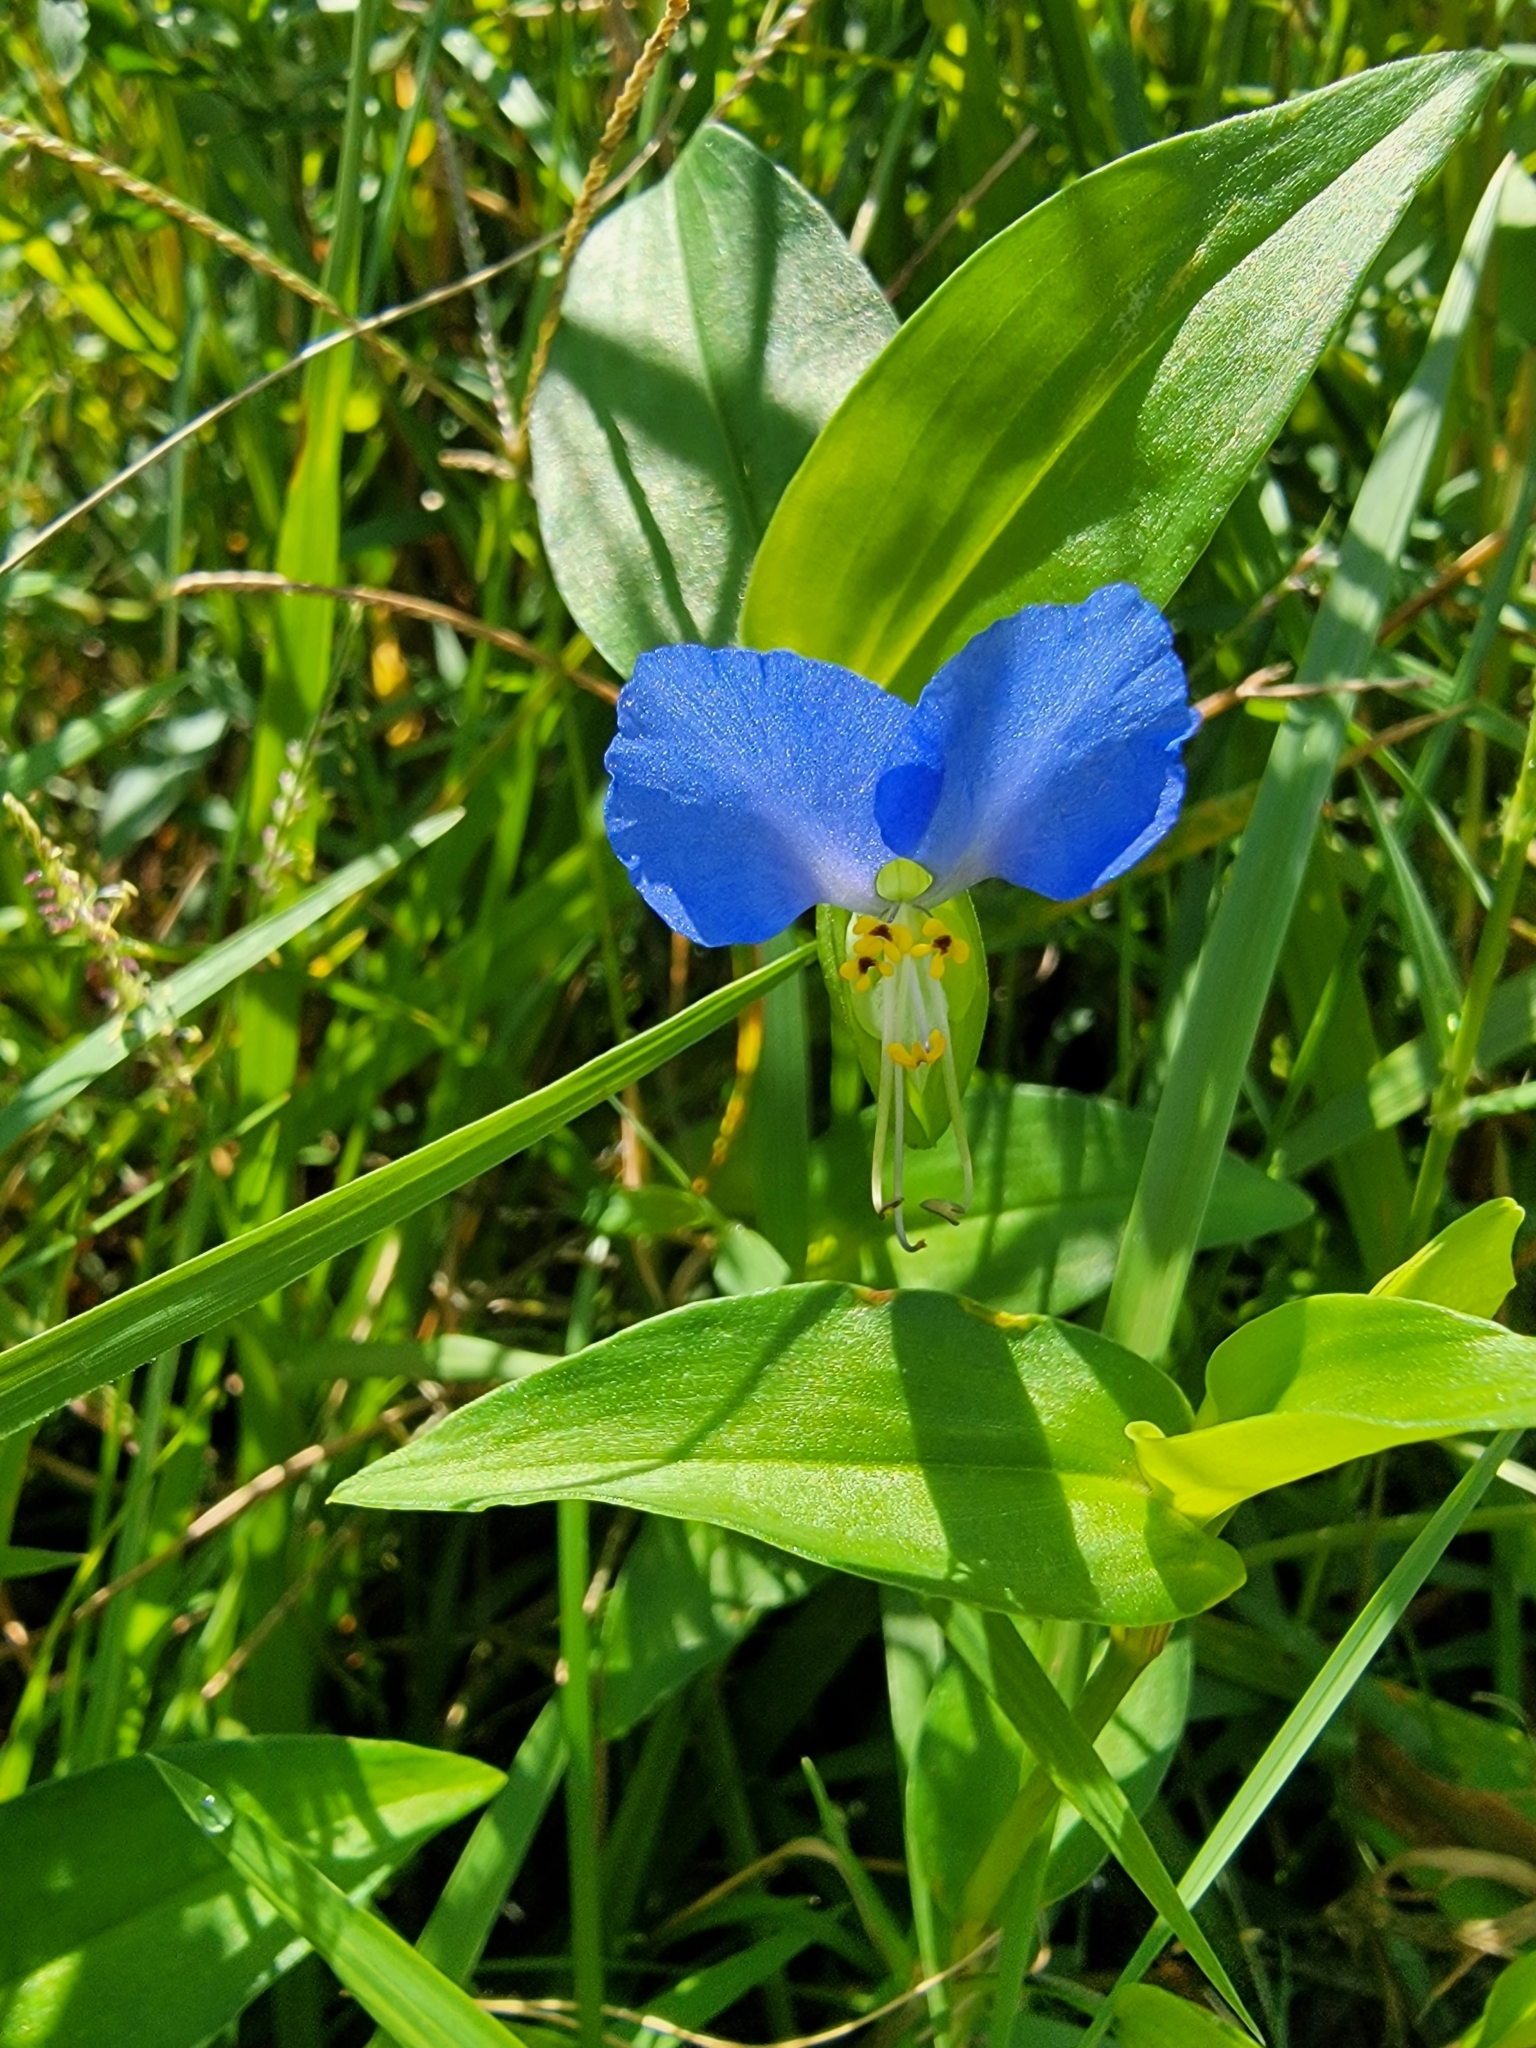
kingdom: Plantae
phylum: Tracheophyta
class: Liliopsida
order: Commelinales
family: Commelinaceae
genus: Commelina
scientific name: Commelina communis
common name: Asiatic dayflower
